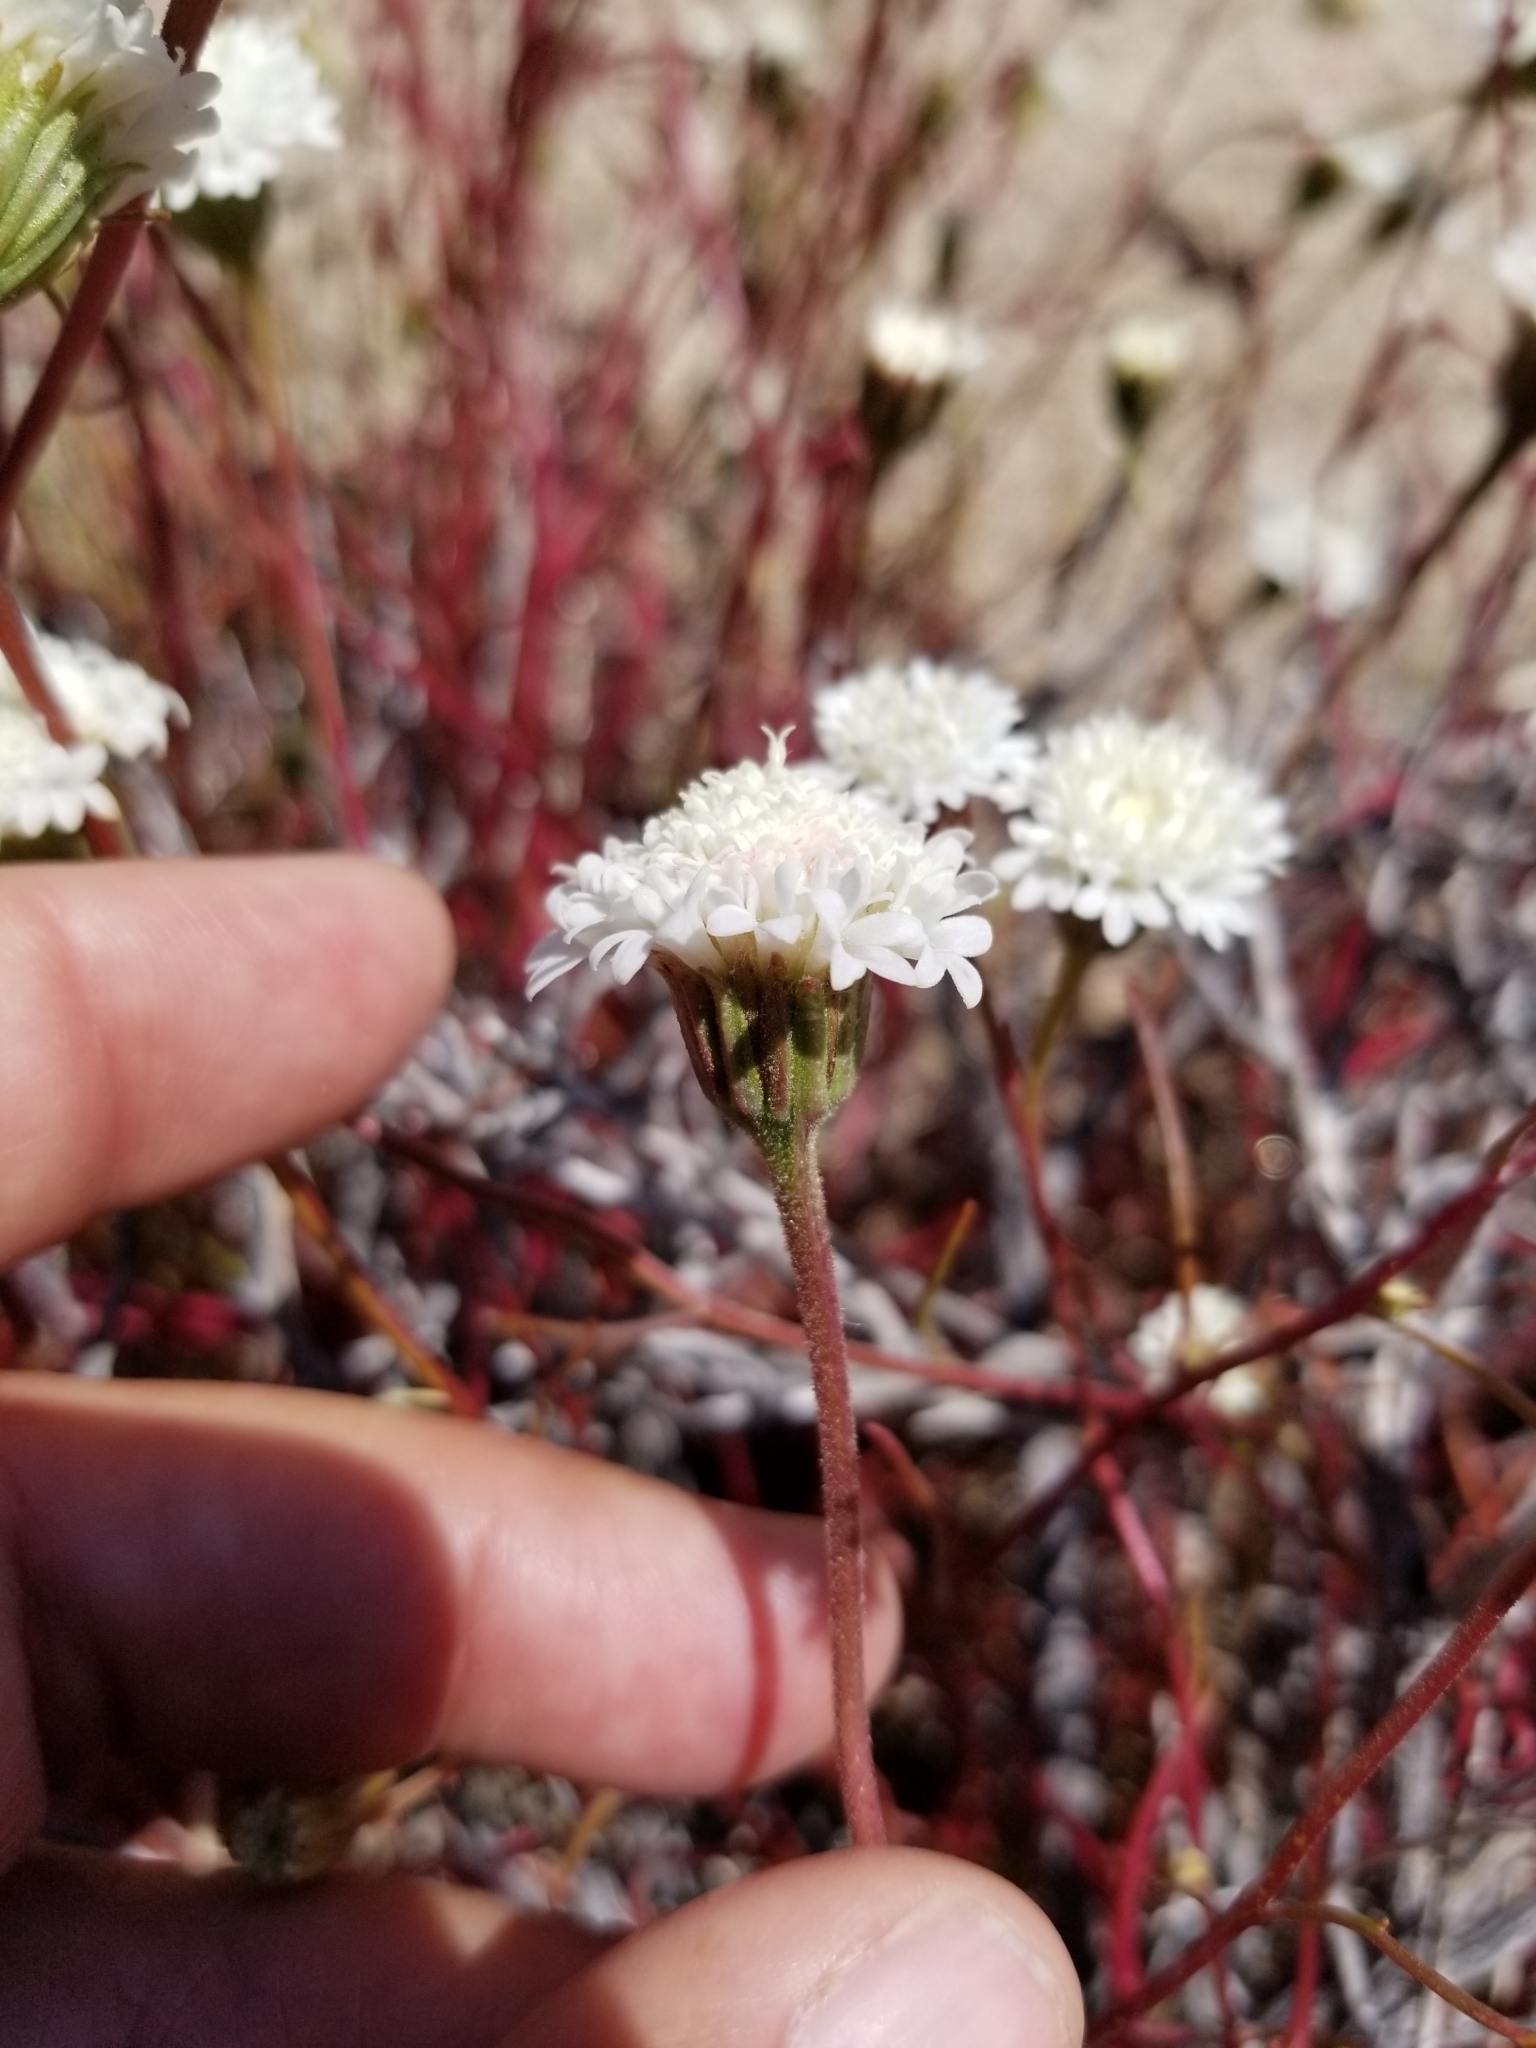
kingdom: Plantae
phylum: Tracheophyta
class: Magnoliopsida
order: Asterales
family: Asteraceae
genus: Chaenactis
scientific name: Chaenactis fremontii
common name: Fremont pincushion
